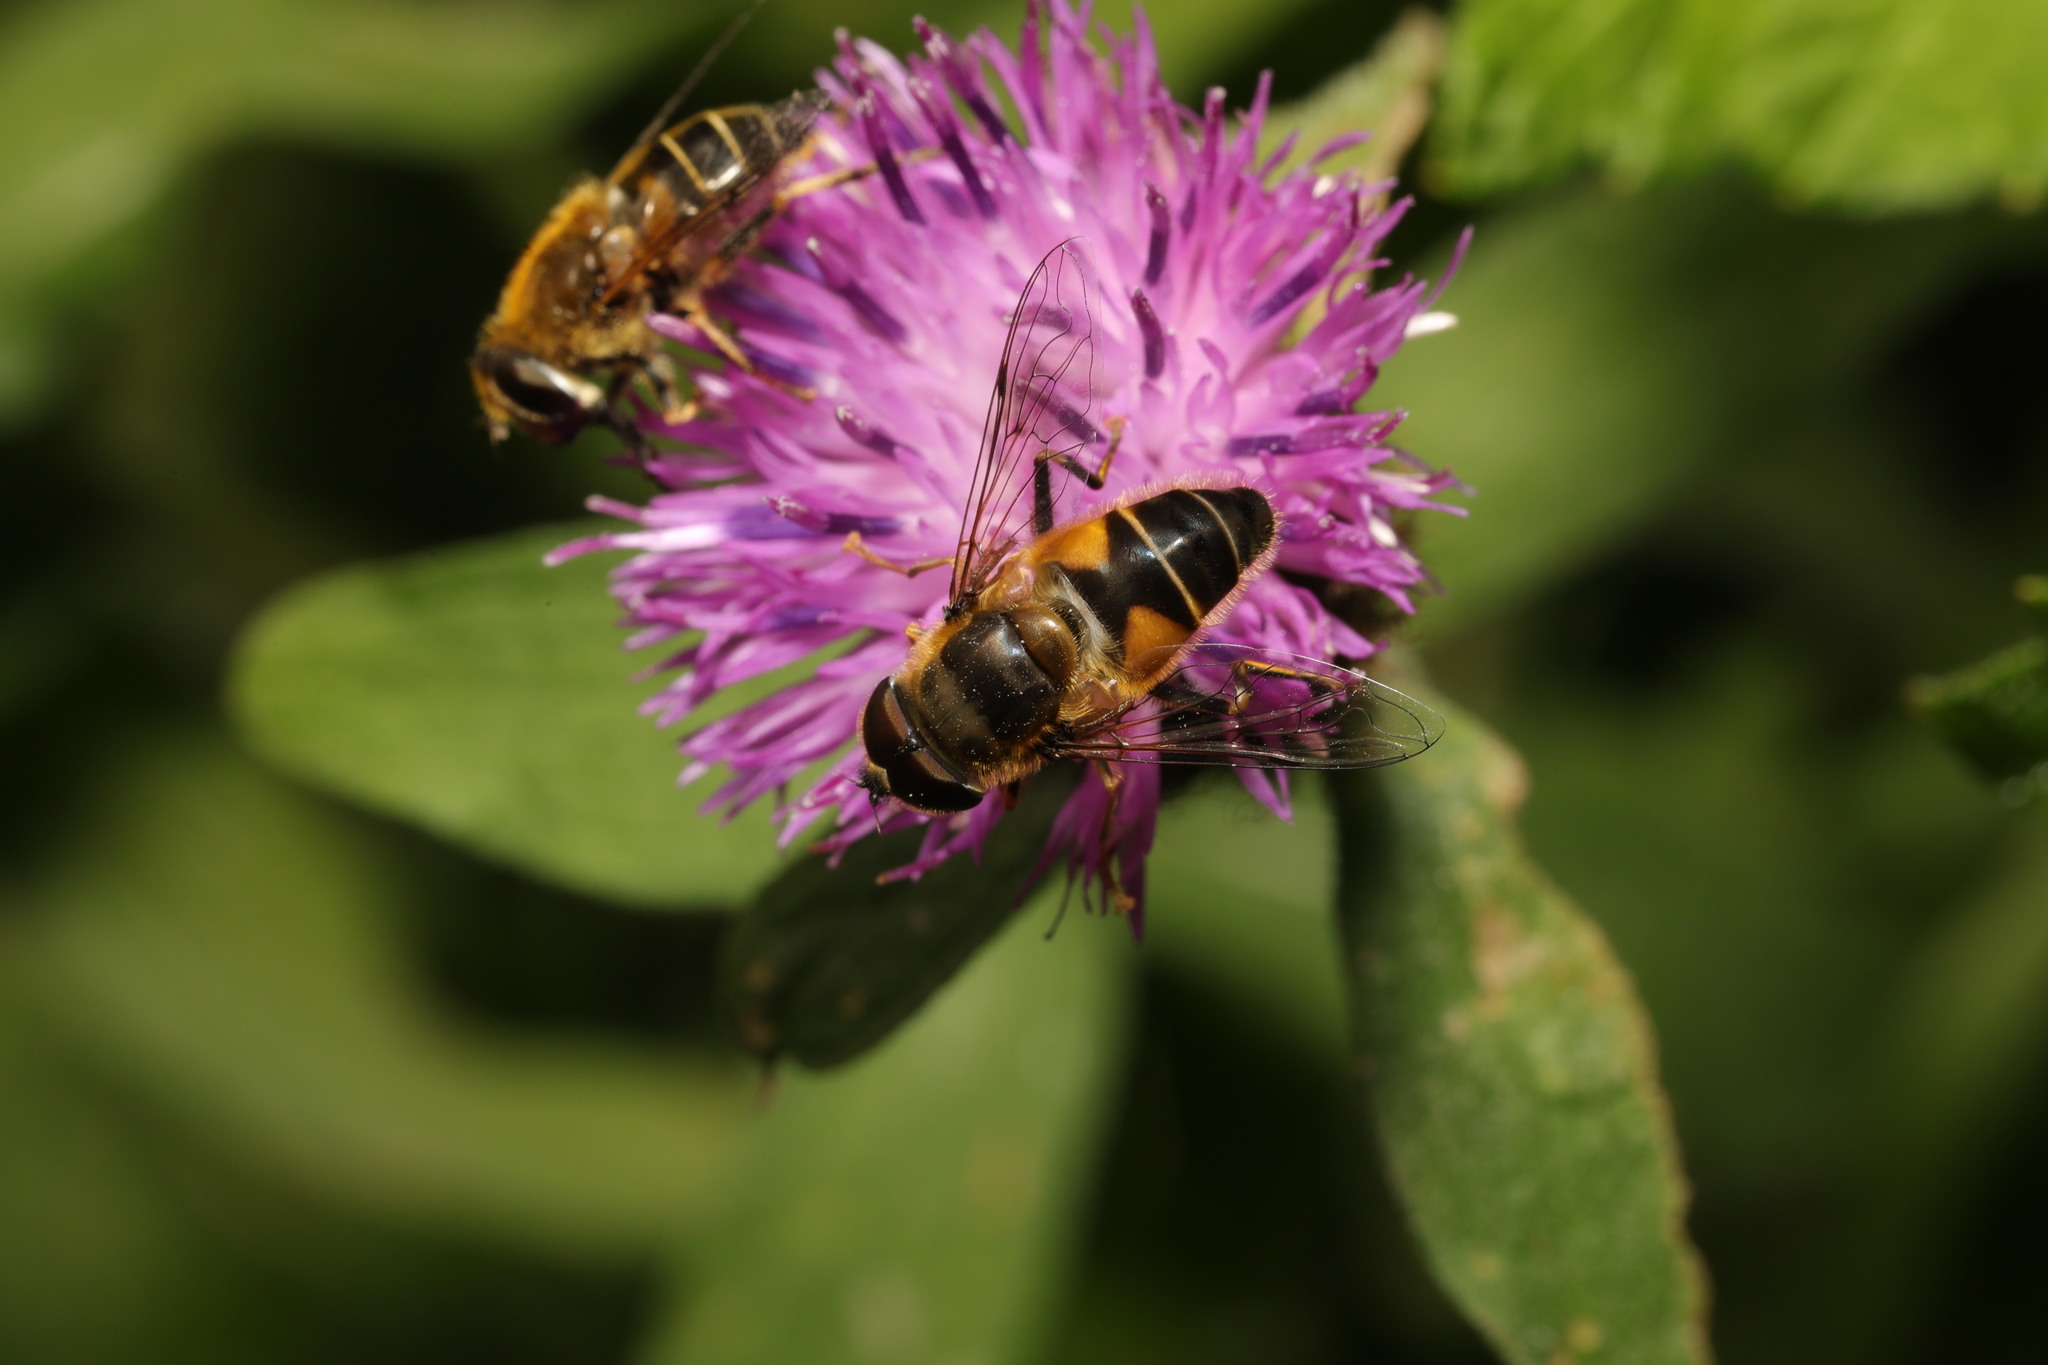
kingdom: Animalia
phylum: Arthropoda
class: Insecta
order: Diptera
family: Syrphidae
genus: Eristalis
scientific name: Eristalis pertinax
